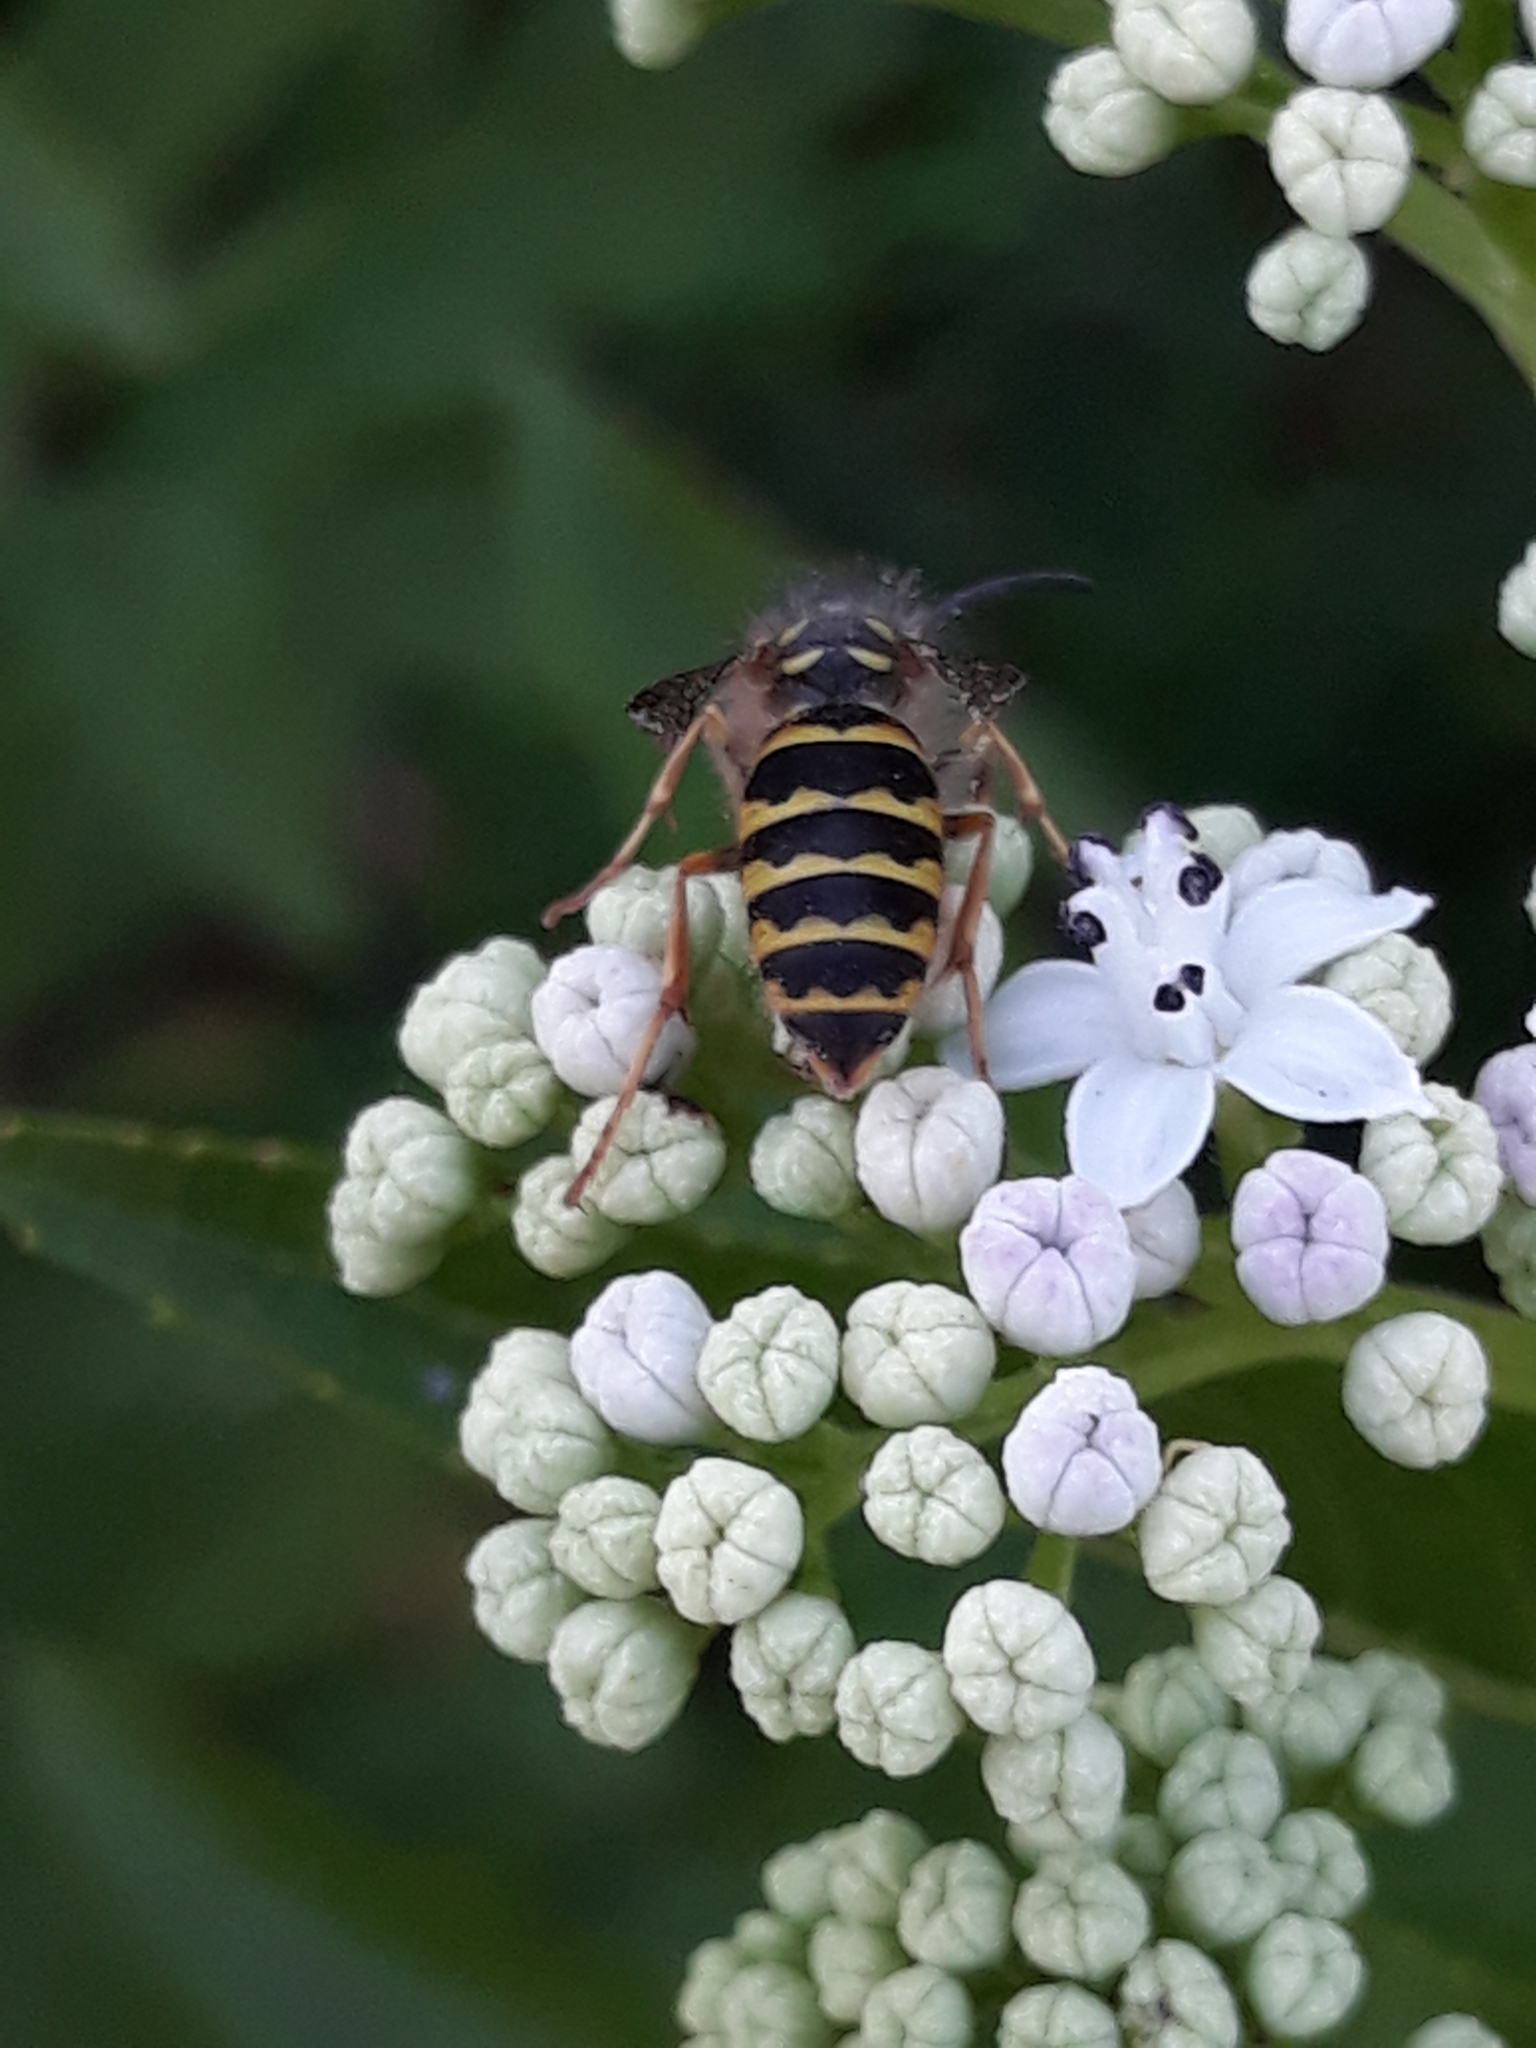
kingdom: Animalia
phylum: Arthropoda
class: Insecta
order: Hymenoptera
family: Vespidae
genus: Vespula
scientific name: Vespula vulgaris
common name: Common wasp
